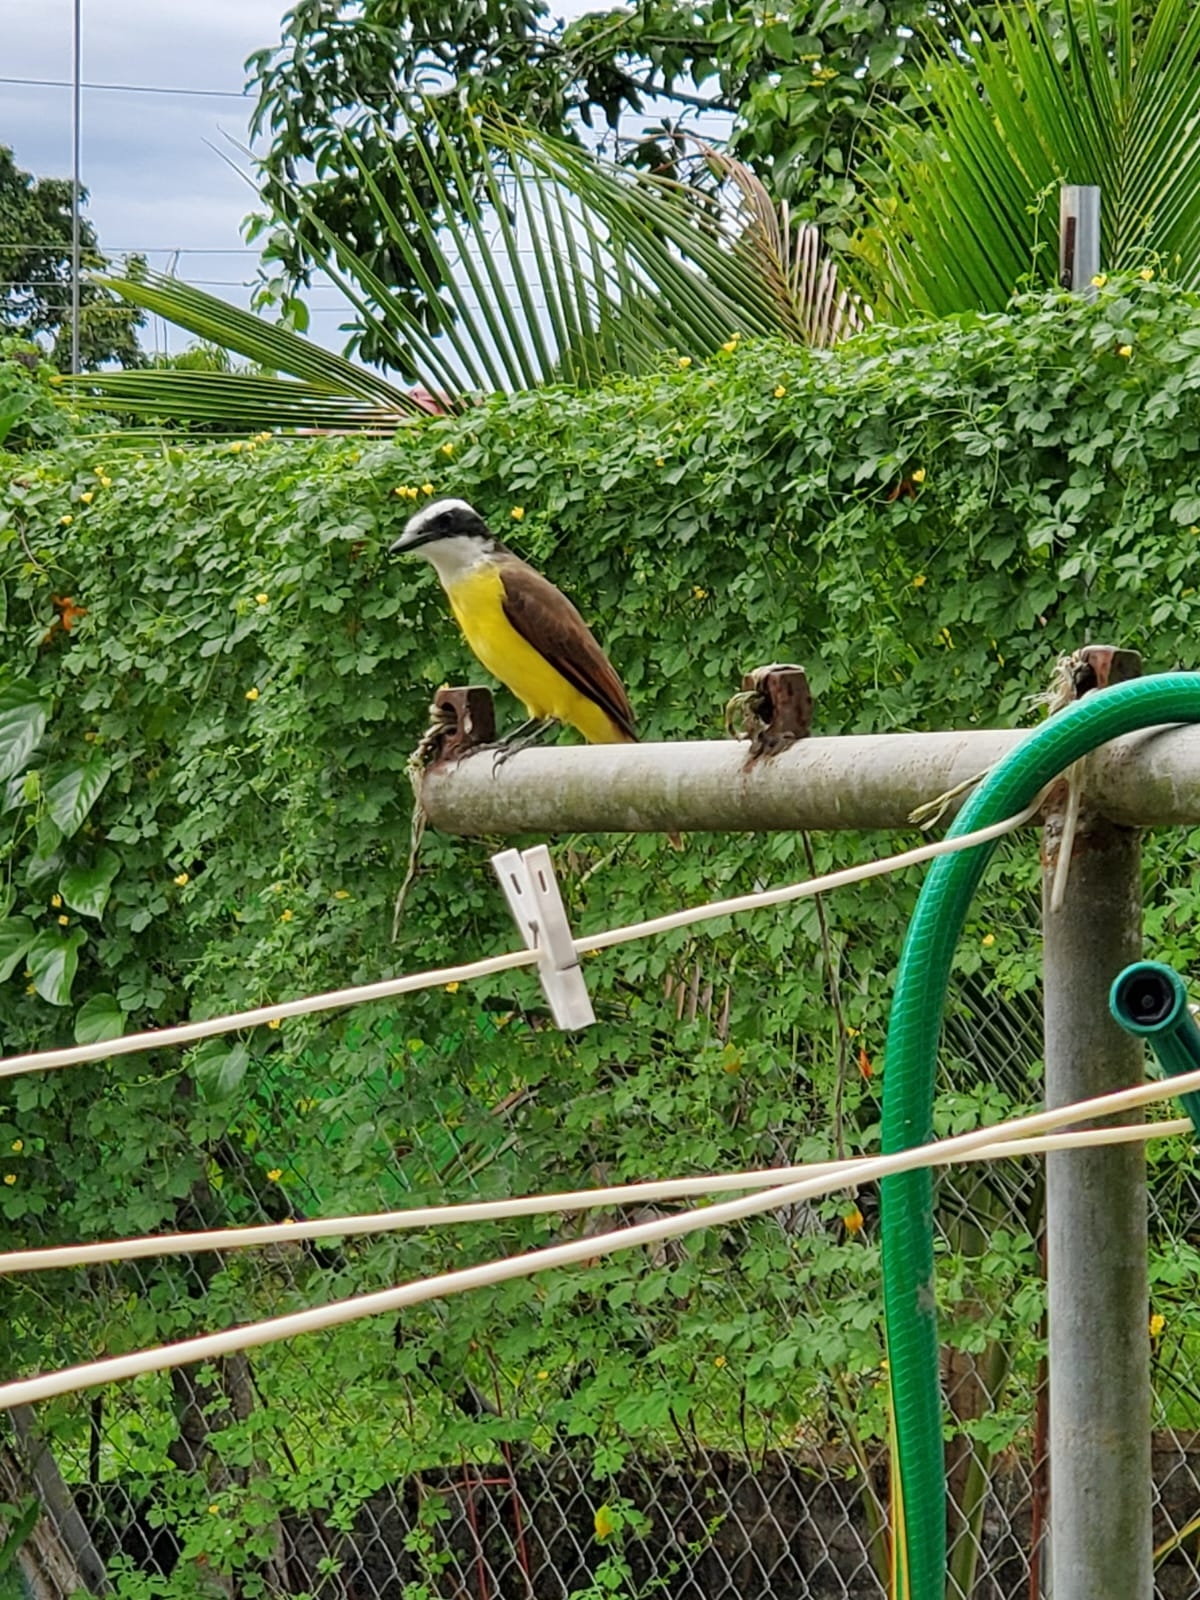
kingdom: Animalia
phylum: Chordata
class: Aves
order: Passeriformes
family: Tyrannidae
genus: Pitangus
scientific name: Pitangus sulphuratus
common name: Great kiskadee
